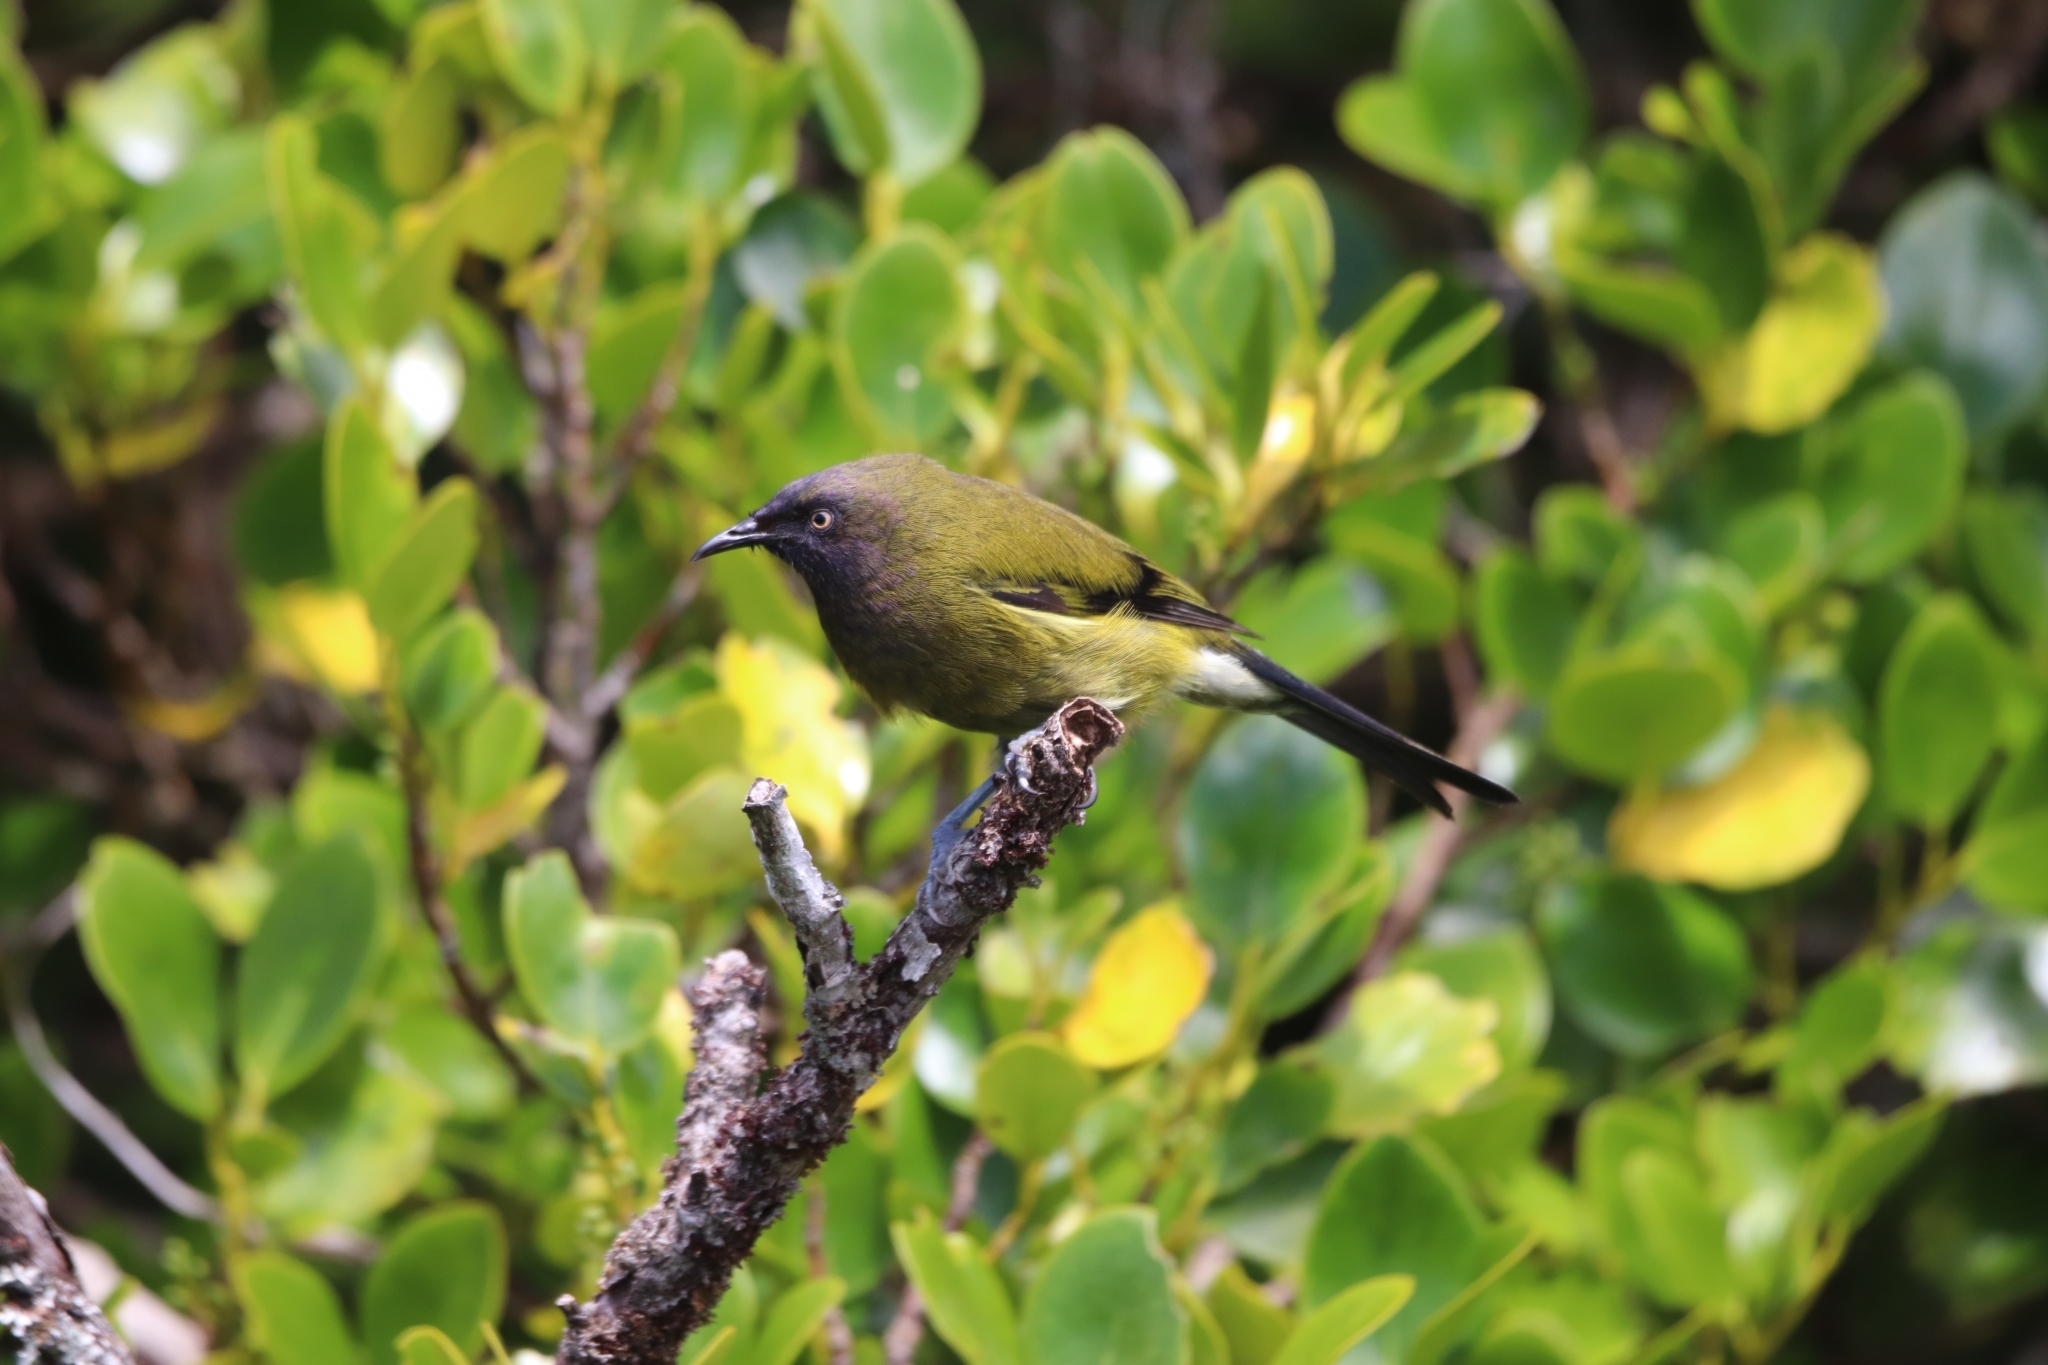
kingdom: Animalia
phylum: Chordata
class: Aves
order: Passeriformes
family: Meliphagidae
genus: Anthornis
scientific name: Anthornis melanura
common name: New zealand bellbird
